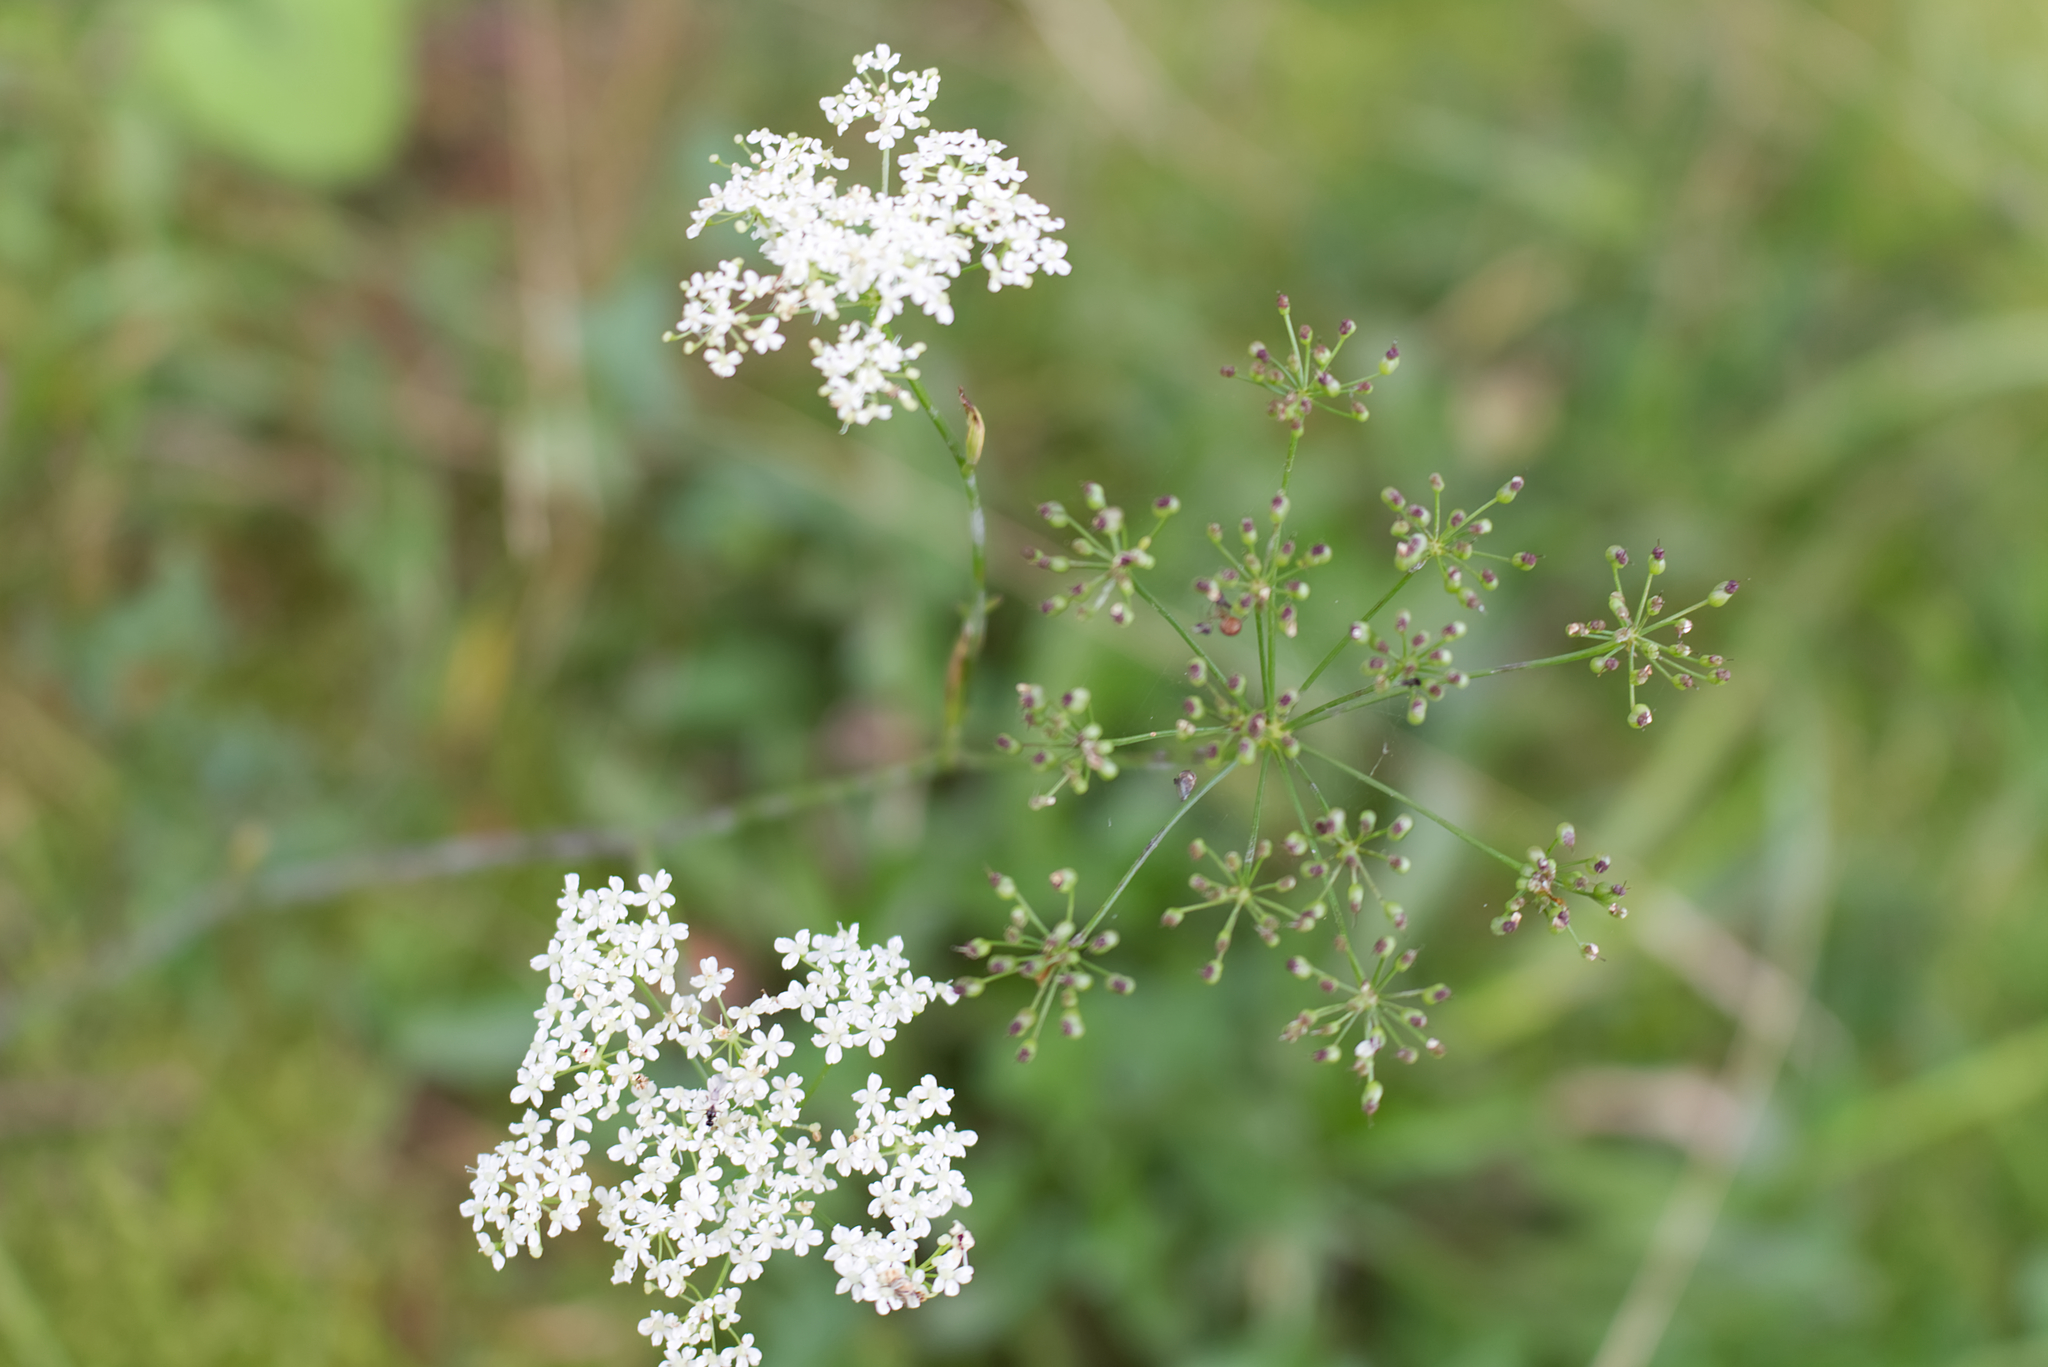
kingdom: Plantae
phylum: Tracheophyta
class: Magnoliopsida
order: Apiales
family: Apiaceae
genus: Pimpinella
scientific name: Pimpinella saxifraga
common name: Burnet-saxifrage
